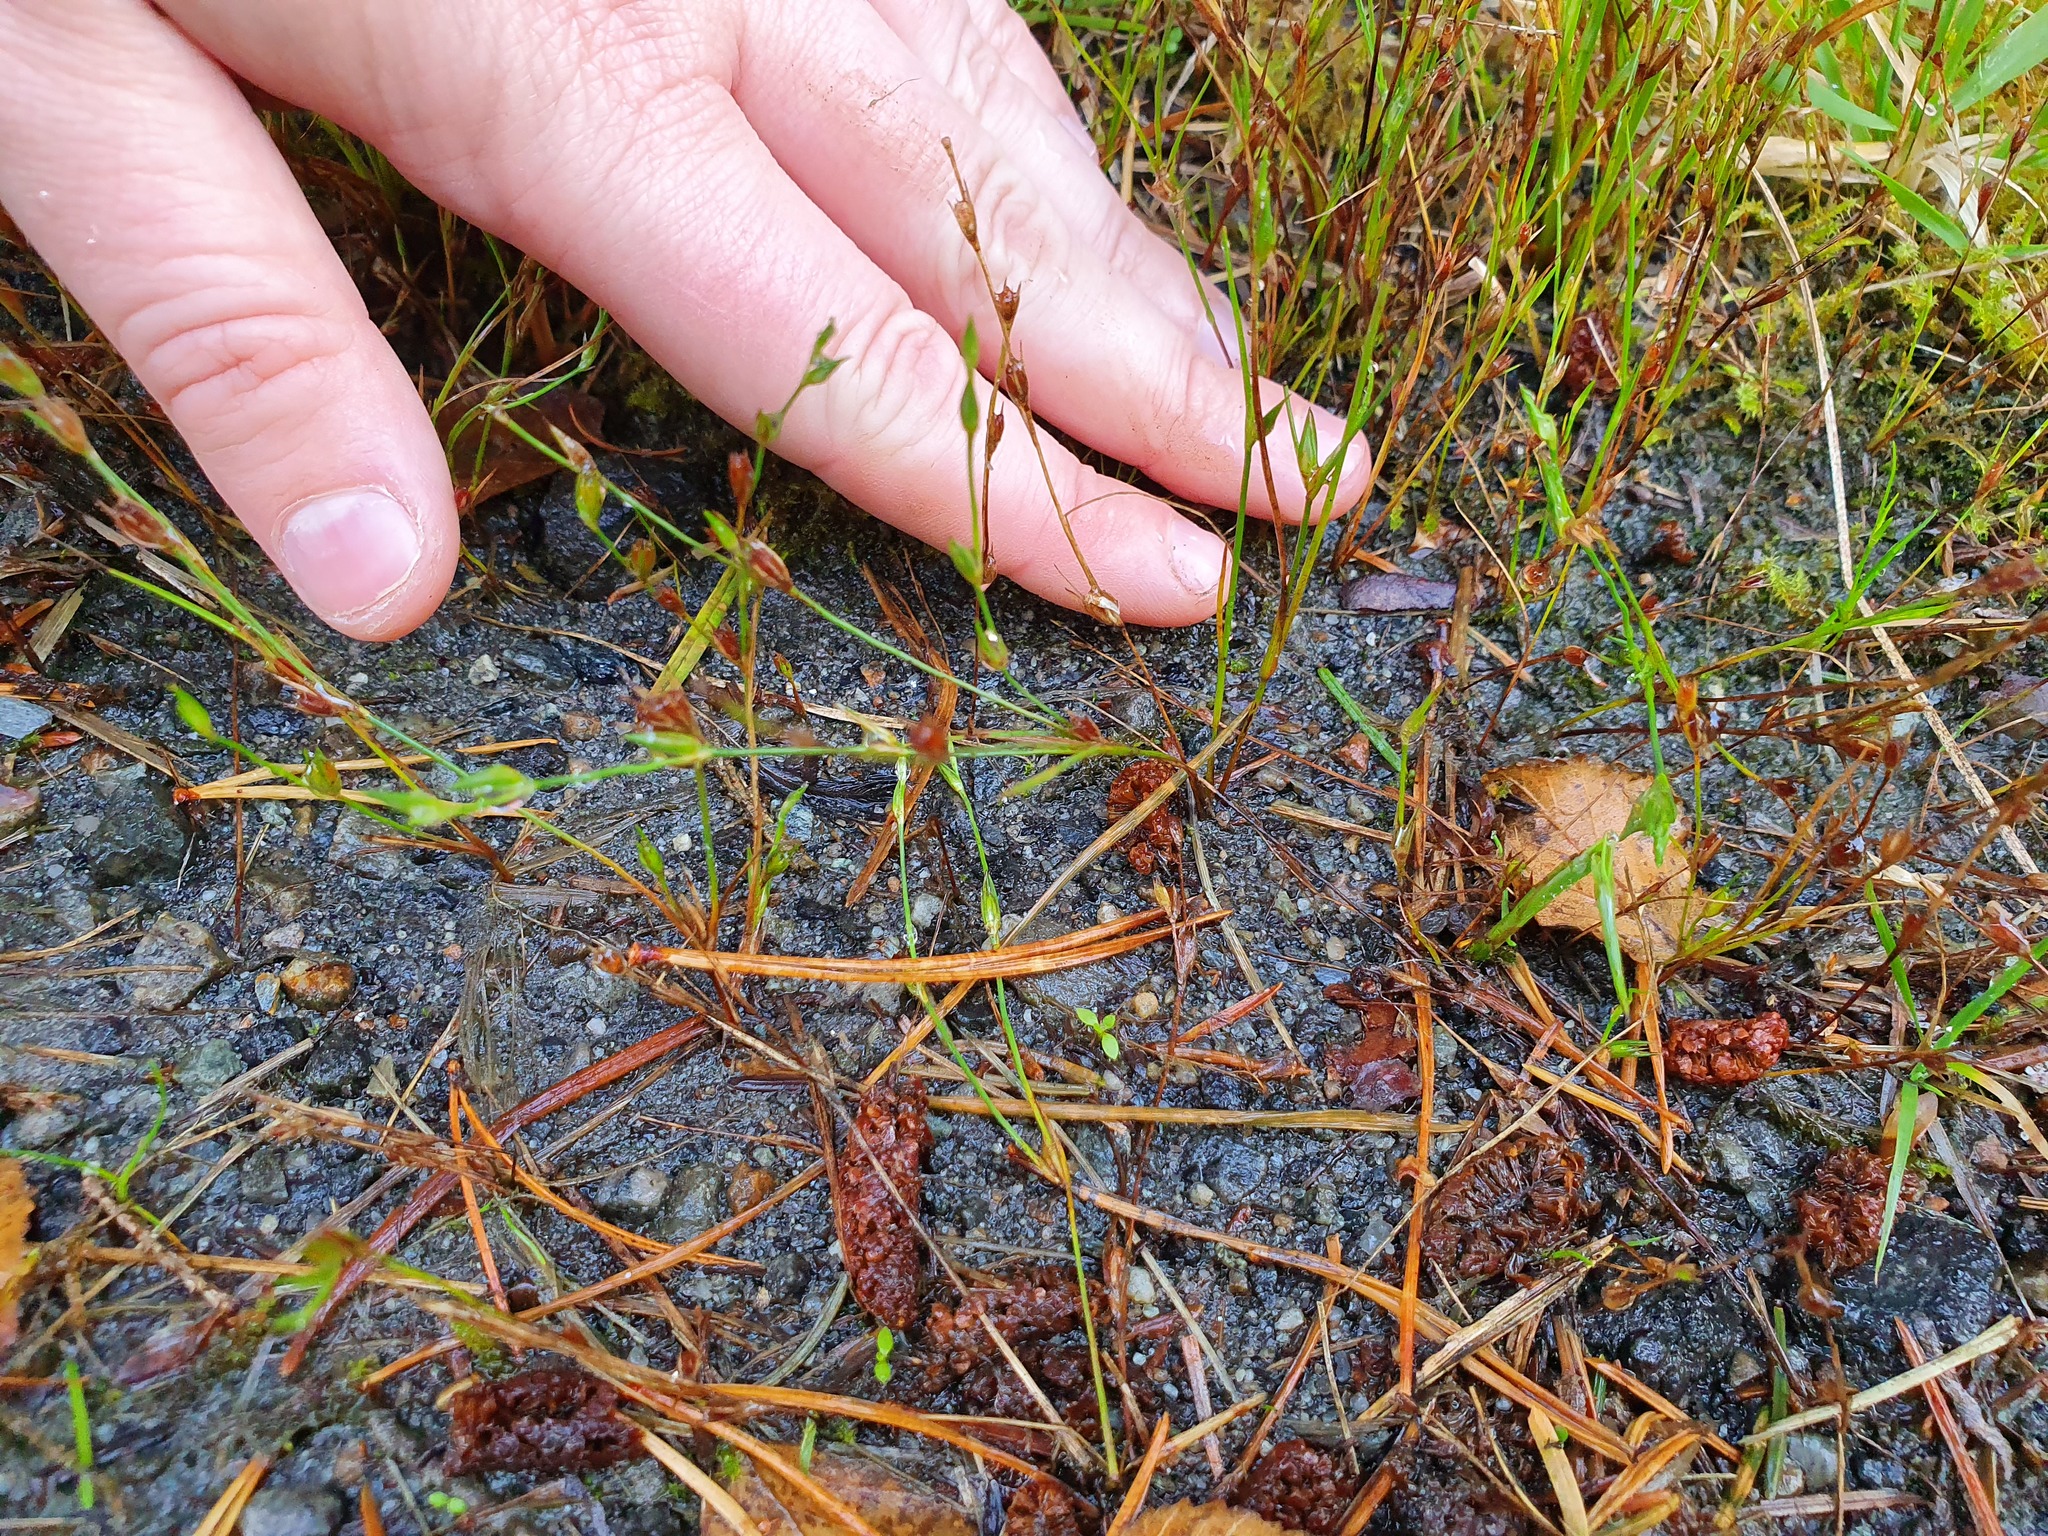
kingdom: Plantae
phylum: Tracheophyta
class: Liliopsida
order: Poales
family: Juncaceae
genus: Juncus
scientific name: Juncus bufonius
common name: Toad rush
